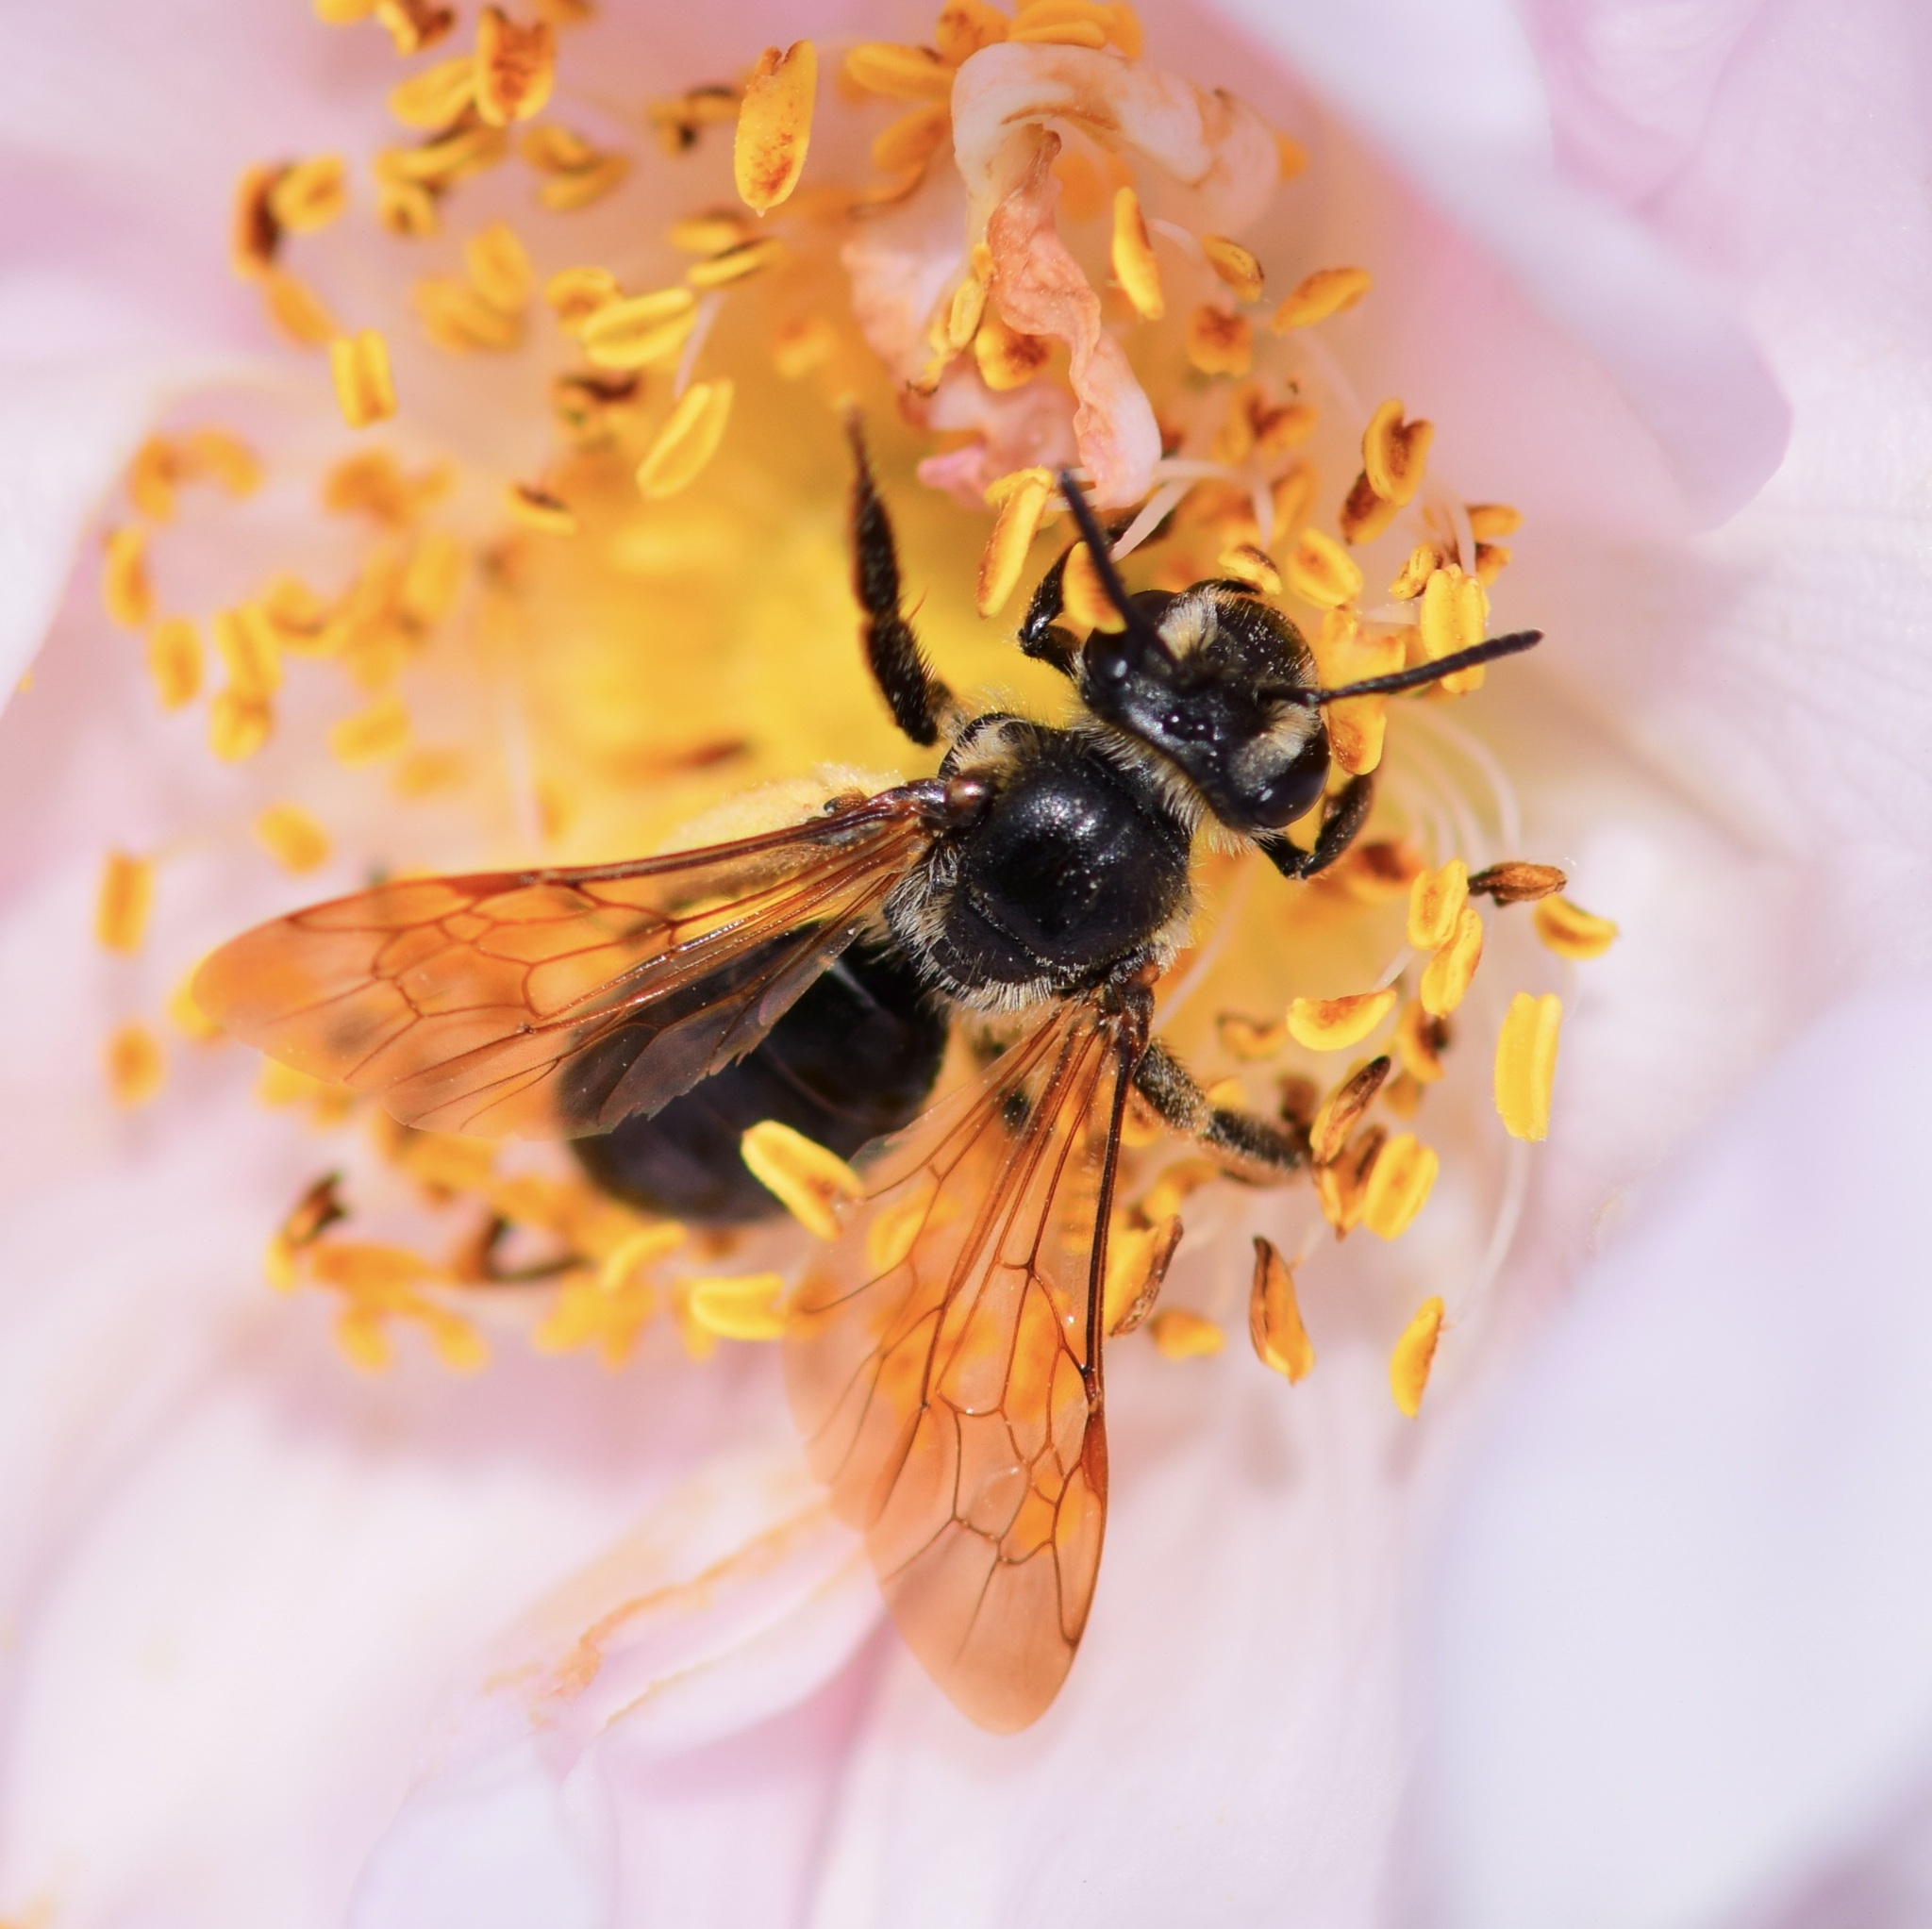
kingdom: Animalia
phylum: Arthropoda
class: Insecta
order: Hymenoptera
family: Andrenidae
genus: Andrena
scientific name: Andrena crataegi
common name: Hawthorn mining bee
